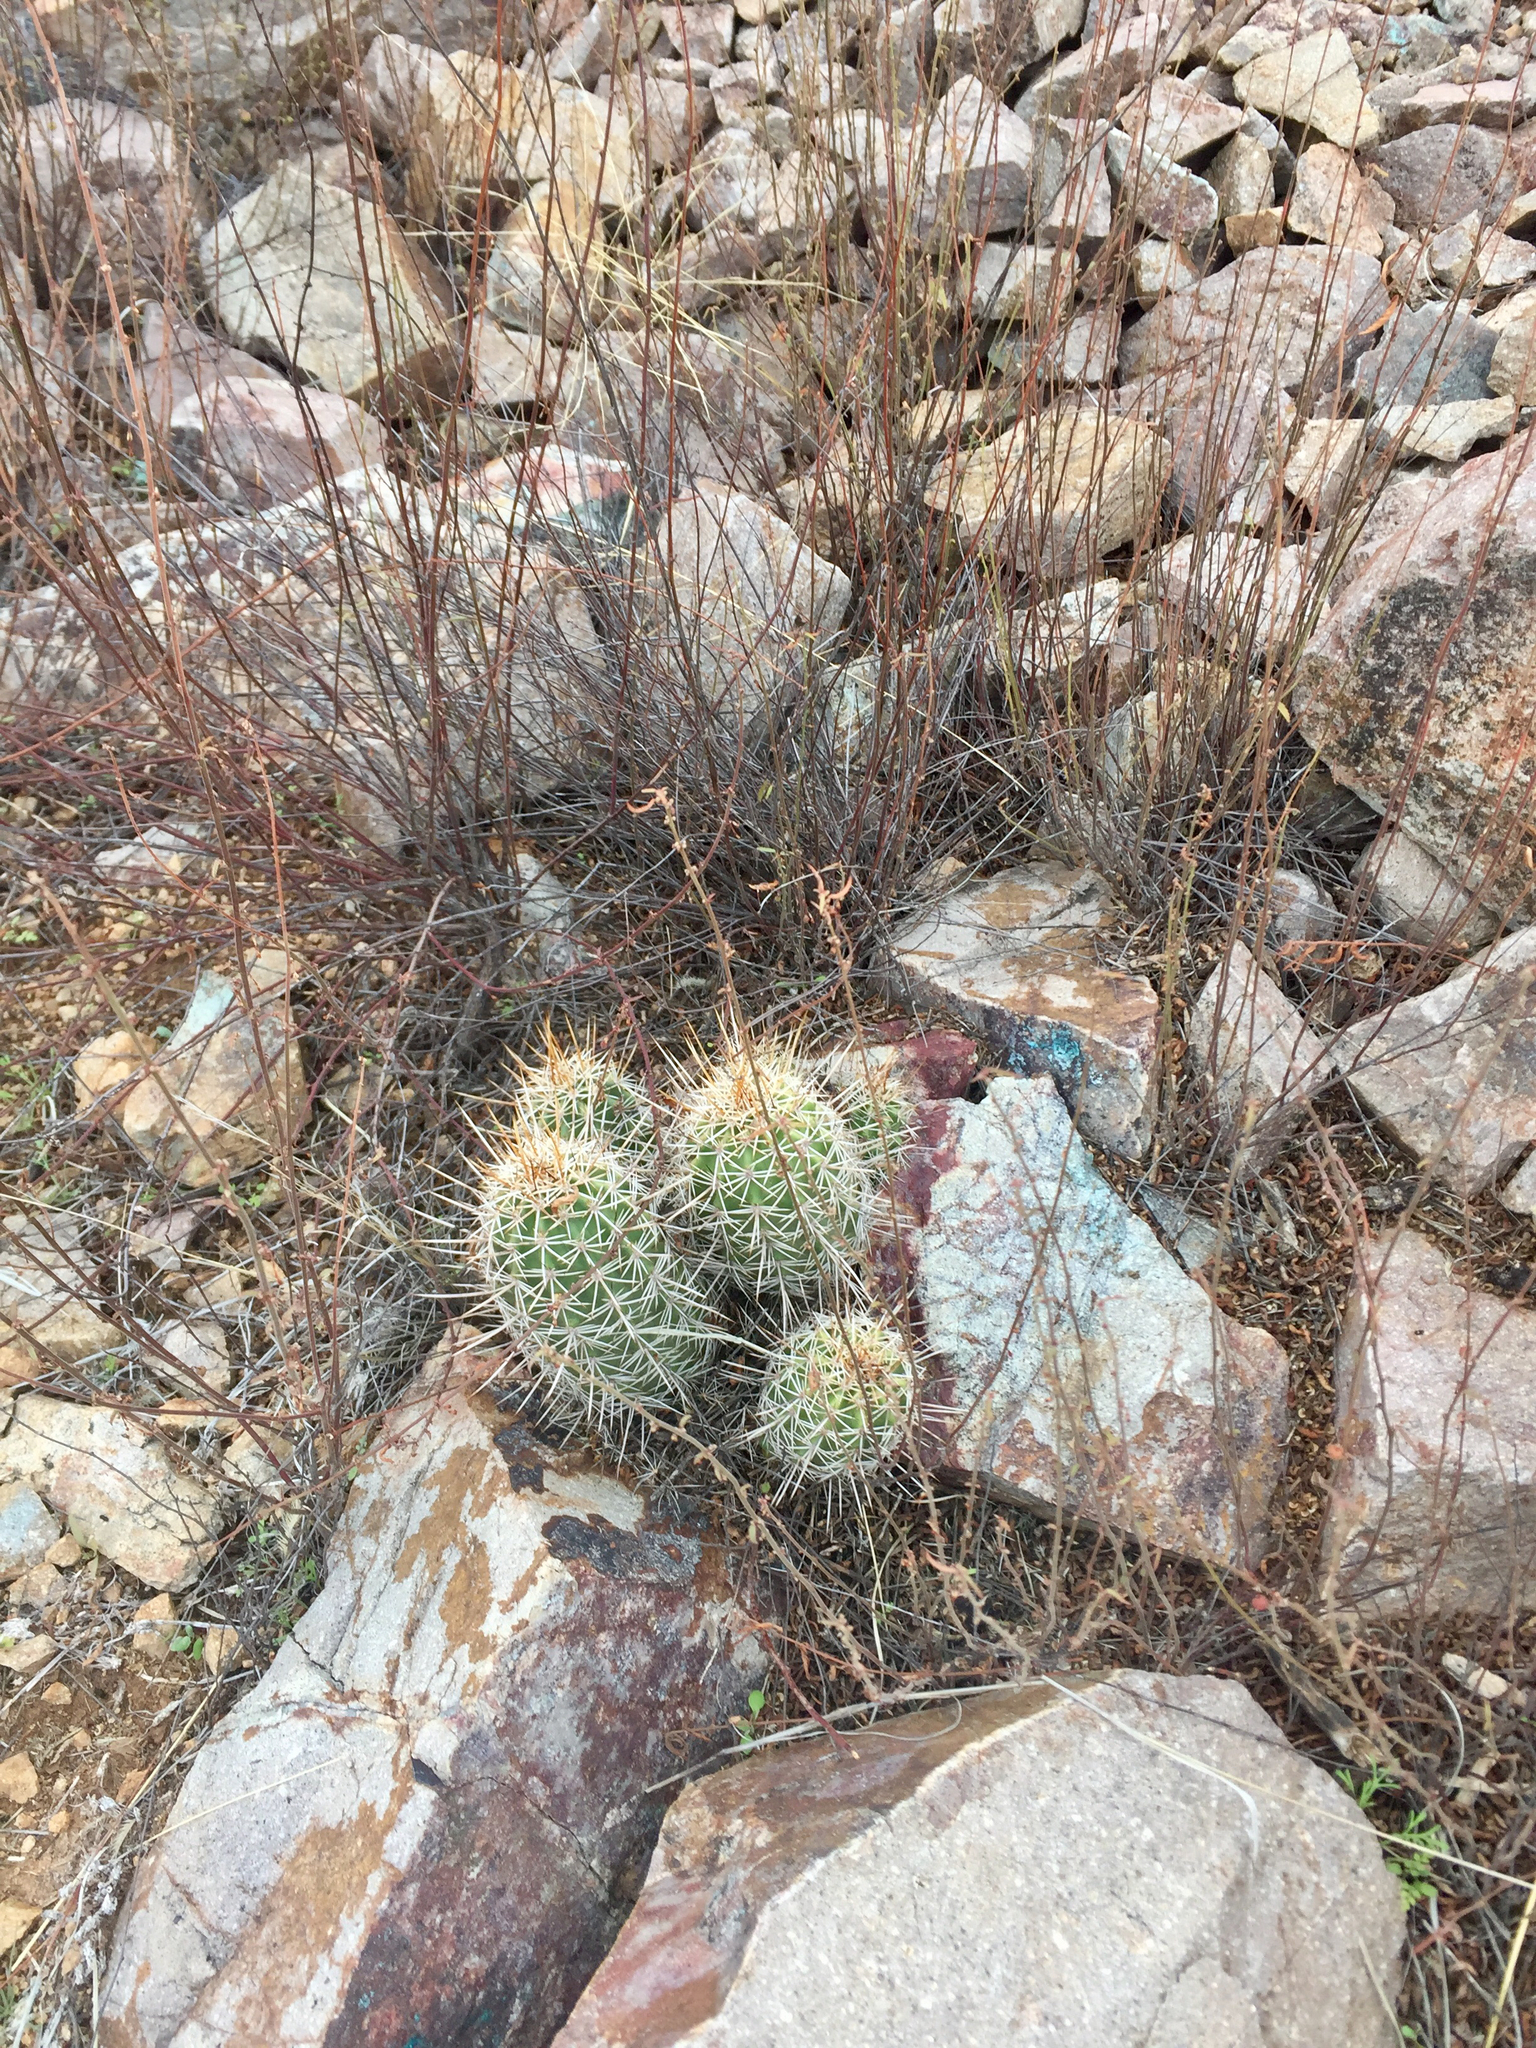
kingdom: Plantae
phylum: Tracheophyta
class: Magnoliopsida
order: Caryophyllales
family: Cactaceae
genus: Echinocereus
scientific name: Echinocereus fasciculatus
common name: Bundle hedgehog
